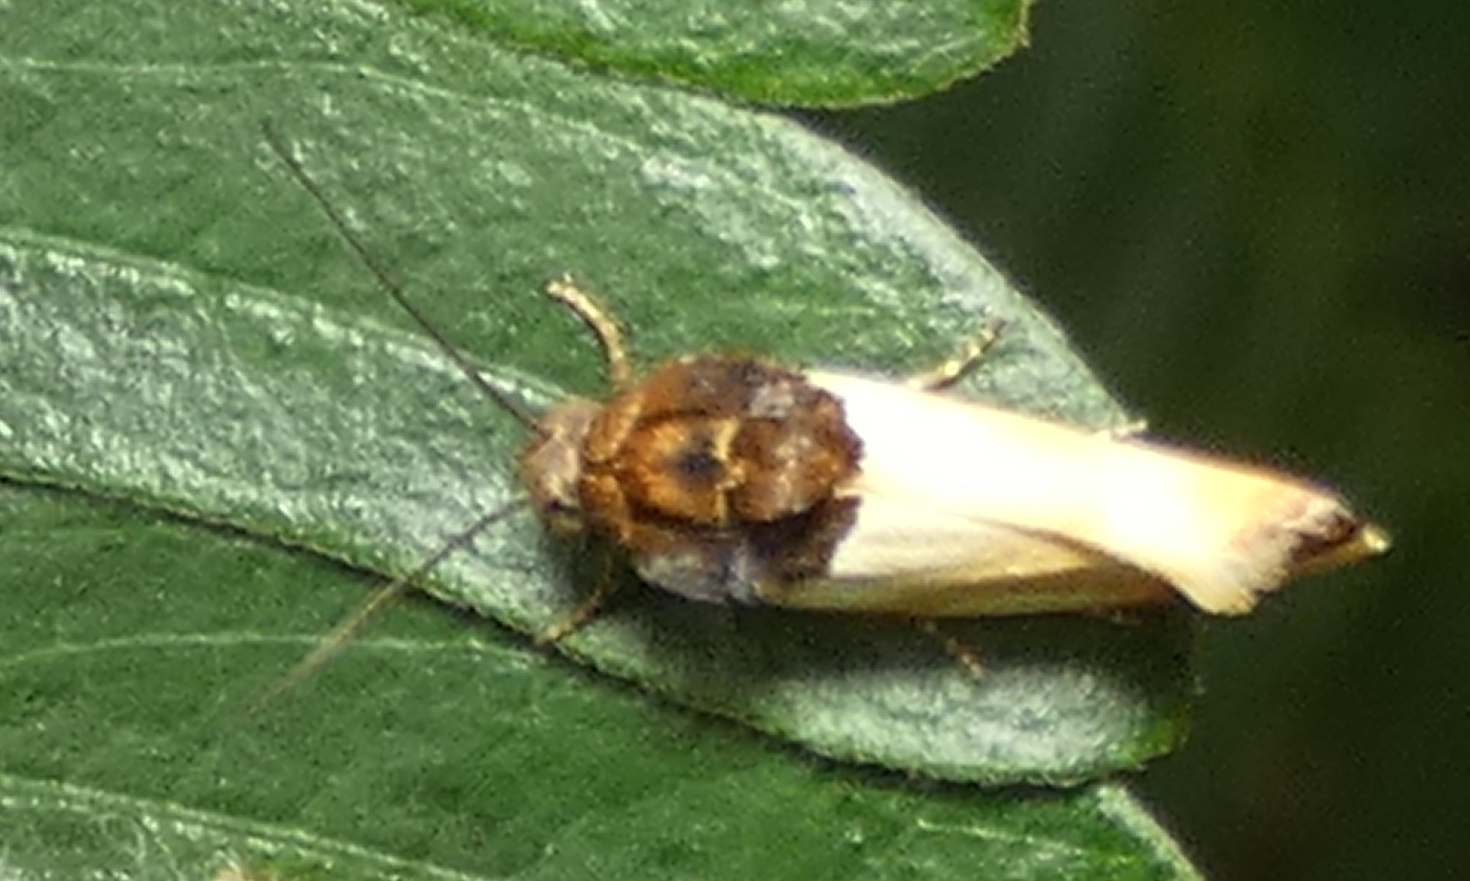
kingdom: Animalia
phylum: Arthropoda
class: Insecta
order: Lepidoptera
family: Noctuidae
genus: Spragueia
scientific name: Spragueia apicalis
